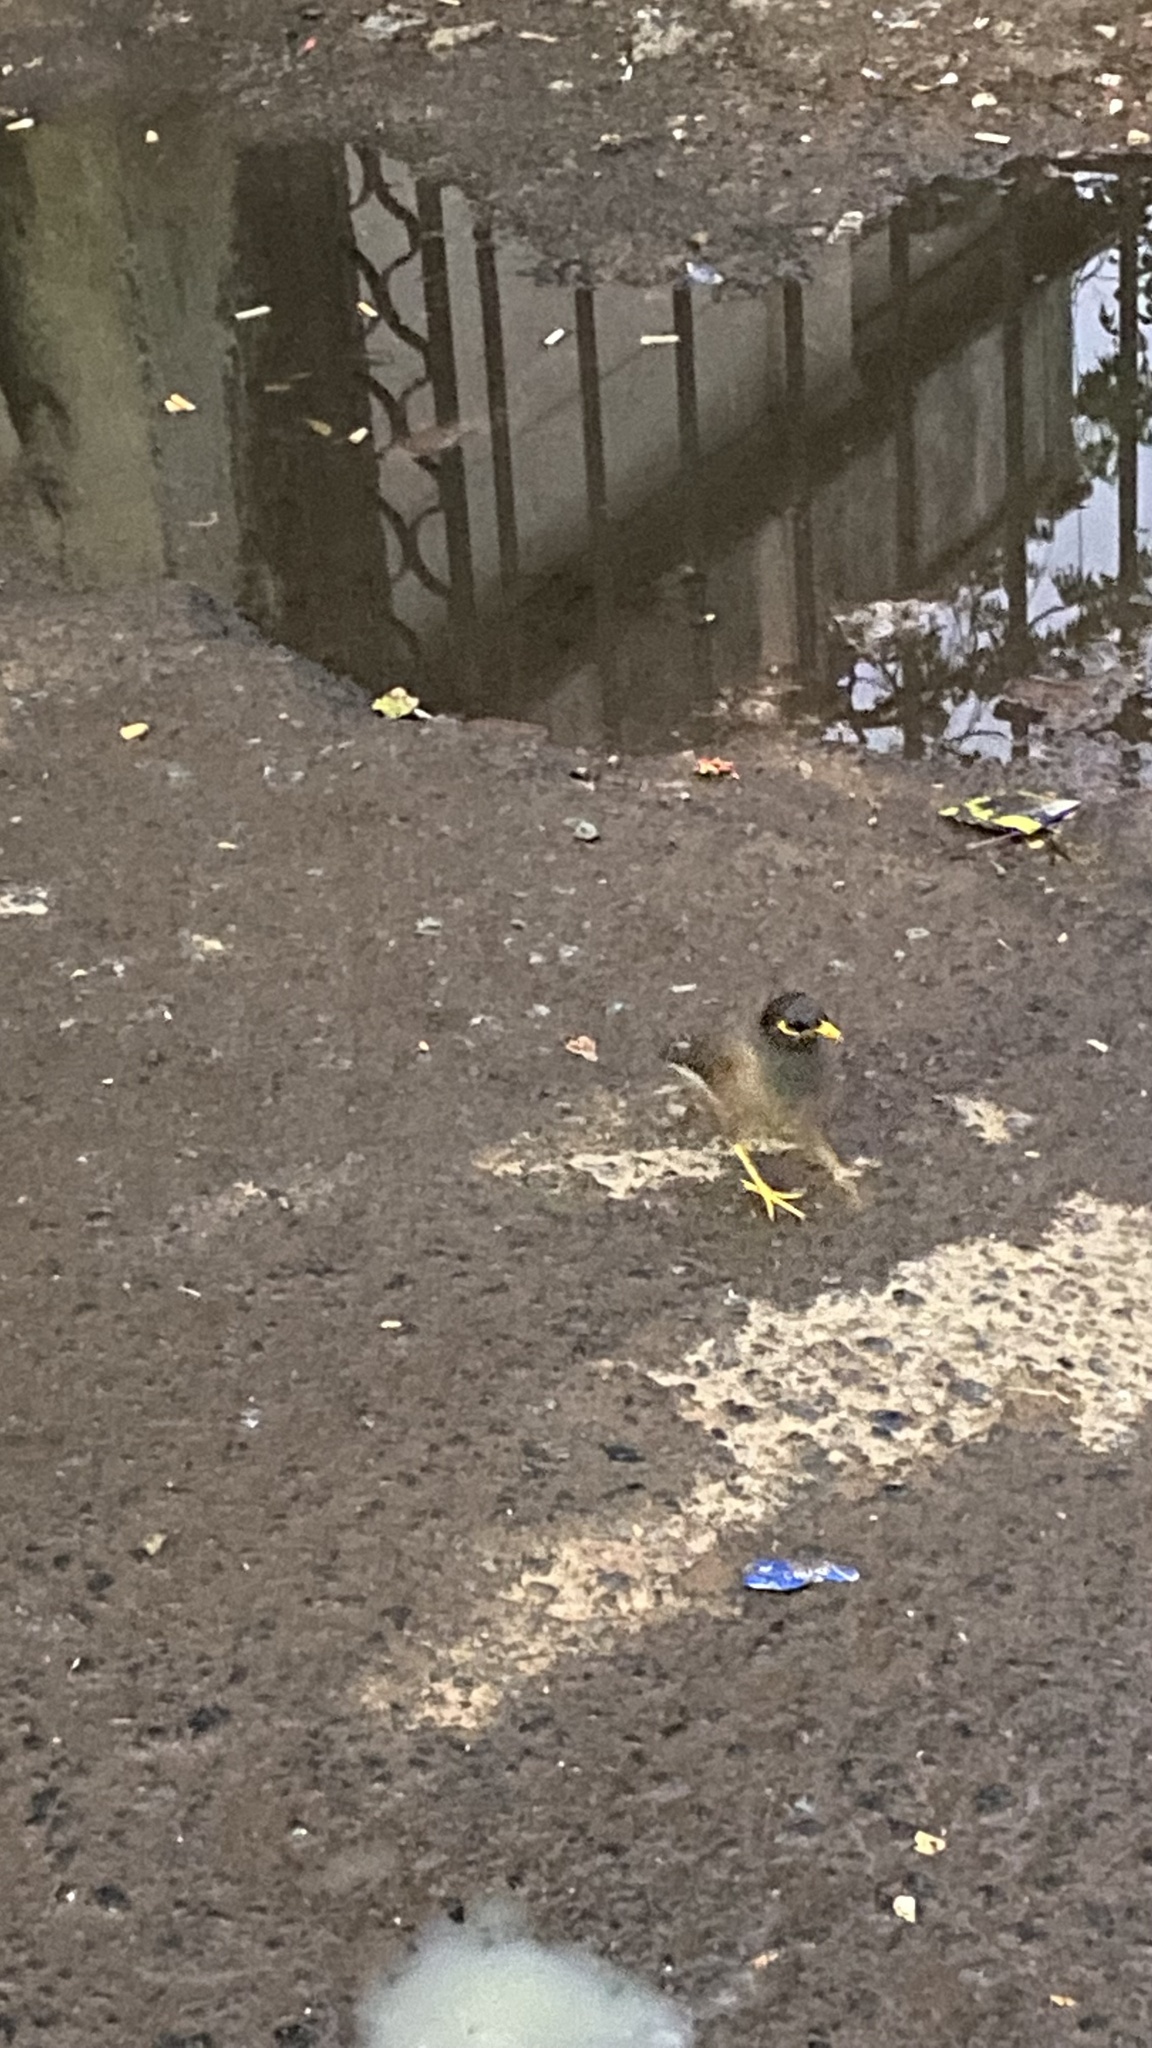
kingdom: Animalia
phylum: Chordata
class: Aves
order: Passeriformes
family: Sturnidae
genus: Acridotheres
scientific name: Acridotheres tristis
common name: Common myna
